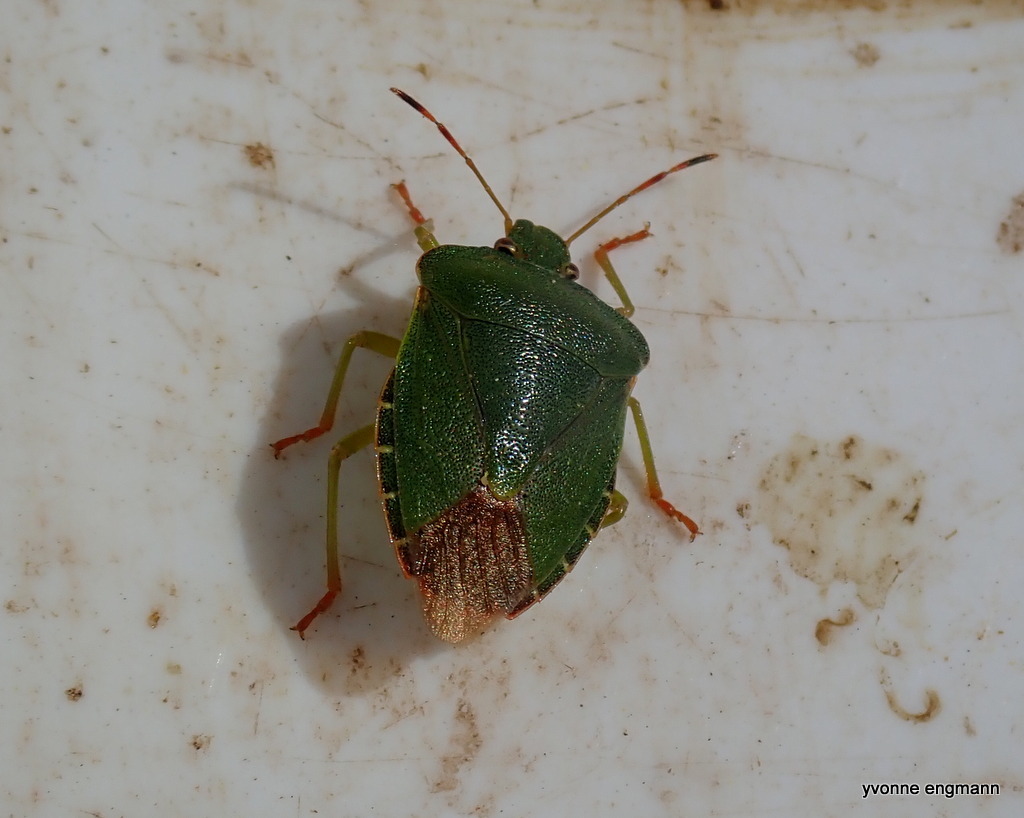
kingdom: Animalia
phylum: Arthropoda
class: Insecta
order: Hemiptera
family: Pentatomidae
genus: Palomena
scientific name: Palomena prasina
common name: Green shieldbug
